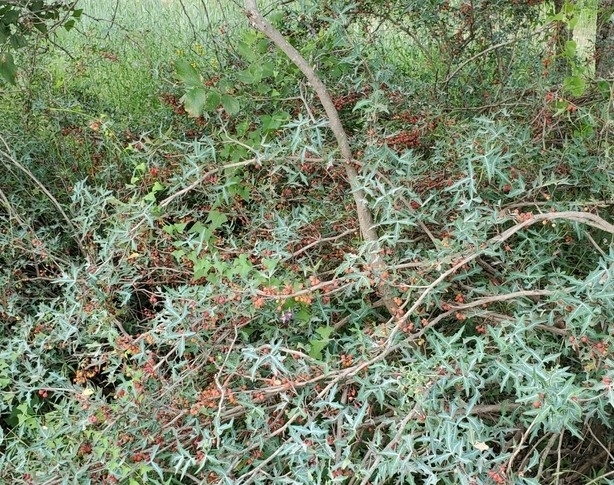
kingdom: Plantae
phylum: Tracheophyta
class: Magnoliopsida
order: Ranunculales
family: Berberidaceae
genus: Alloberberis
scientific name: Alloberberis trifoliolata
